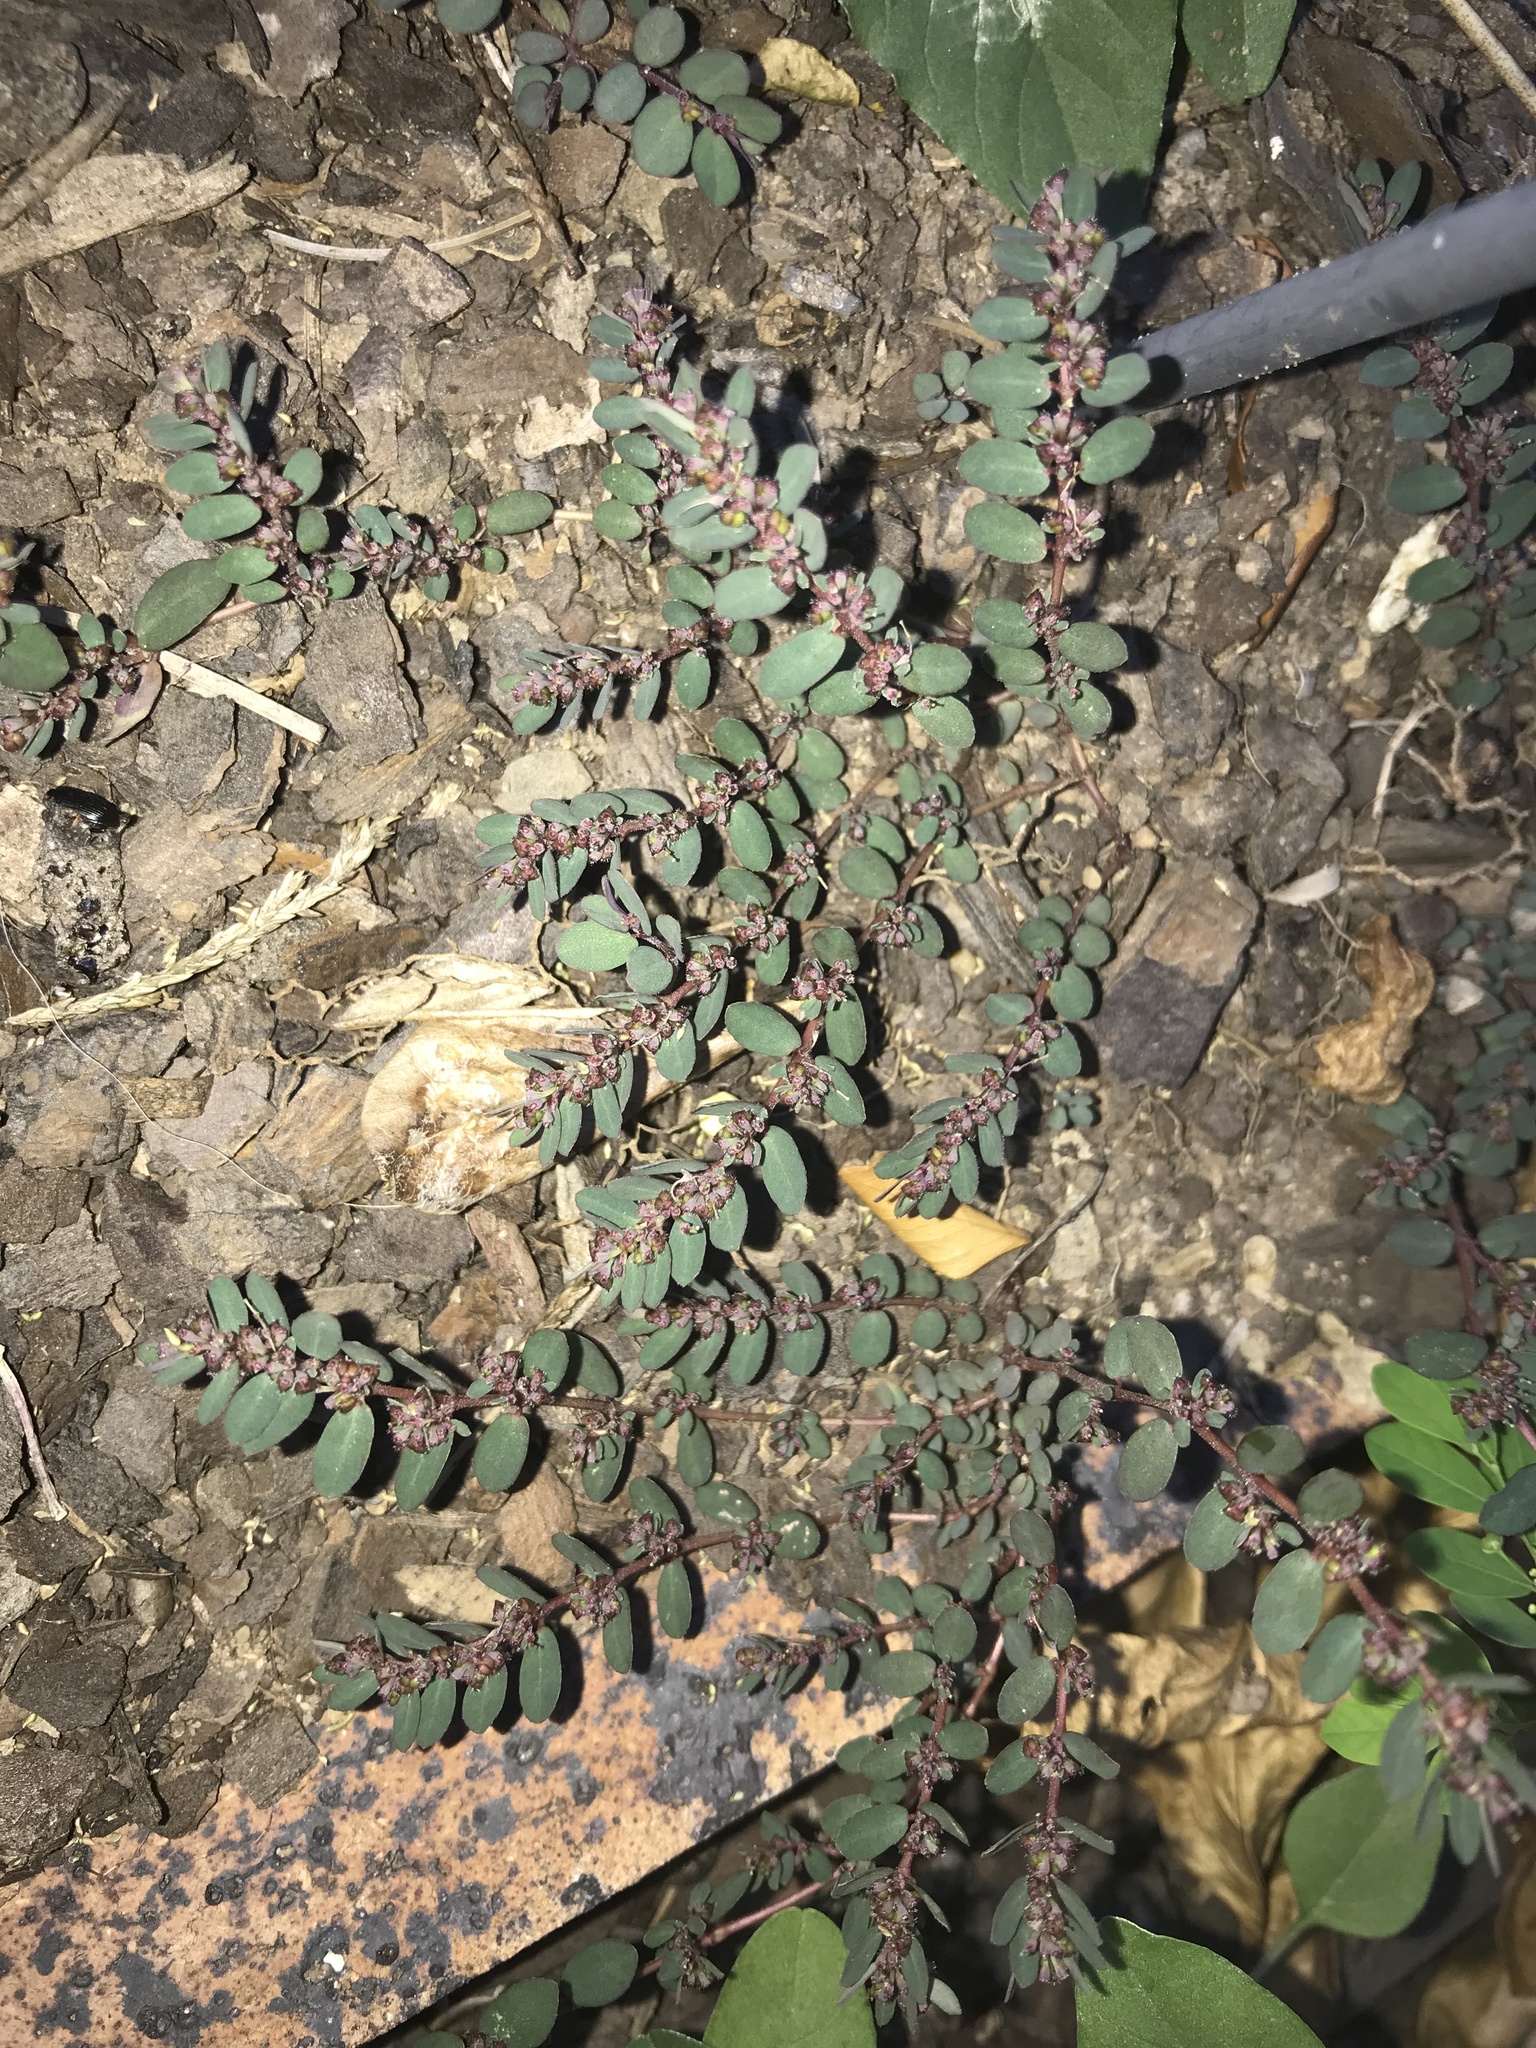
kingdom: Plantae
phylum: Tracheophyta
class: Magnoliopsida
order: Malpighiales
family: Euphorbiaceae
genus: Euphorbia
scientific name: Euphorbia prostrata
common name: Prostrate sandmat
